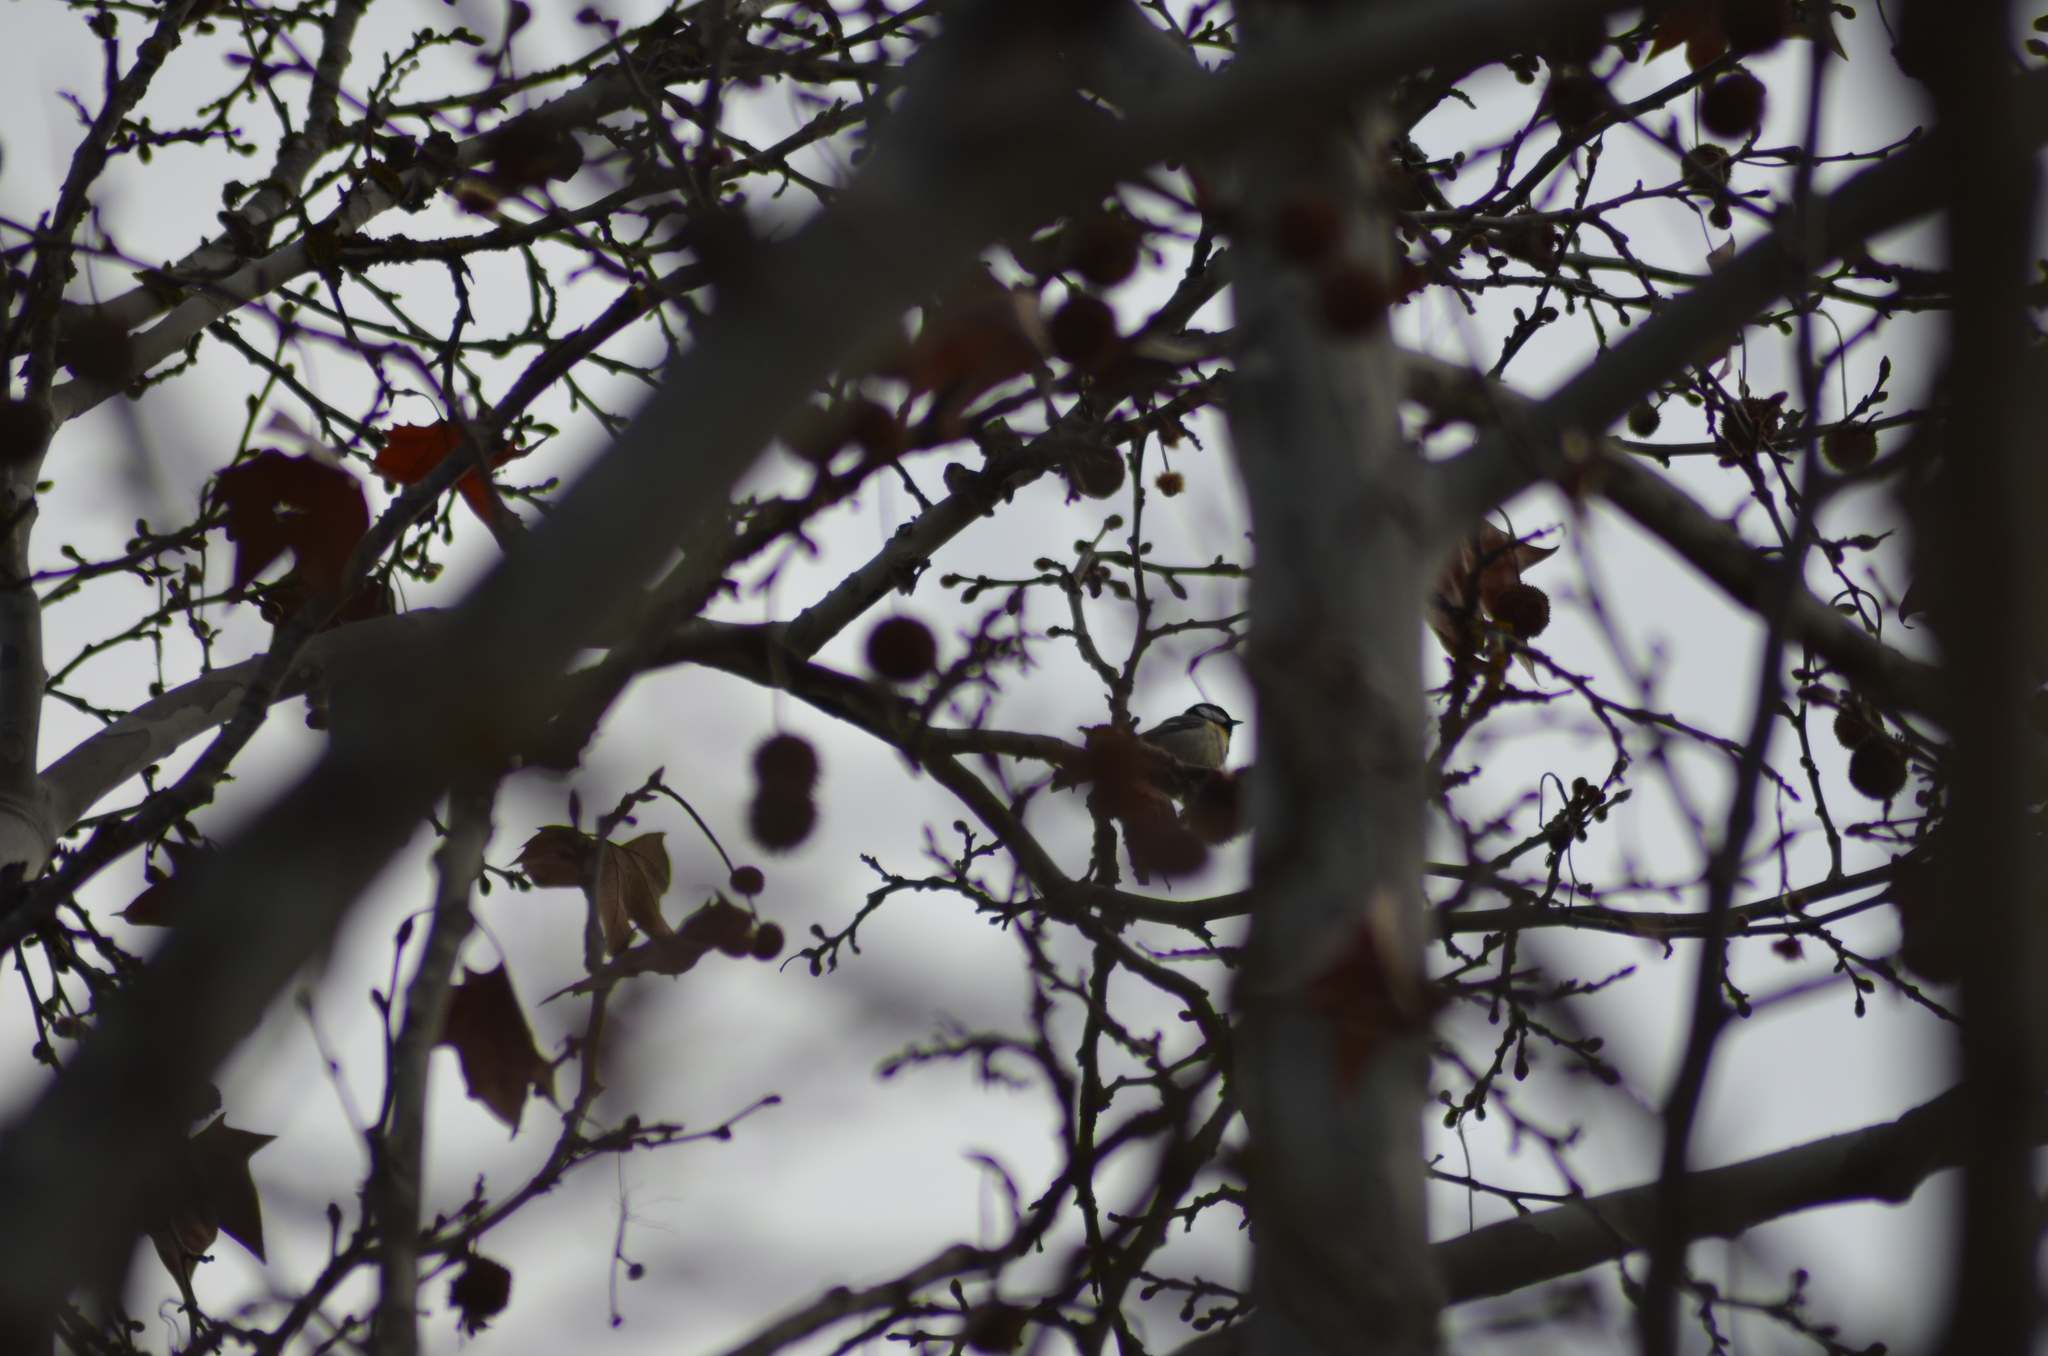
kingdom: Animalia
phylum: Chordata
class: Aves
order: Passeriformes
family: Paridae
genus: Parus
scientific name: Parus major
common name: Great tit
